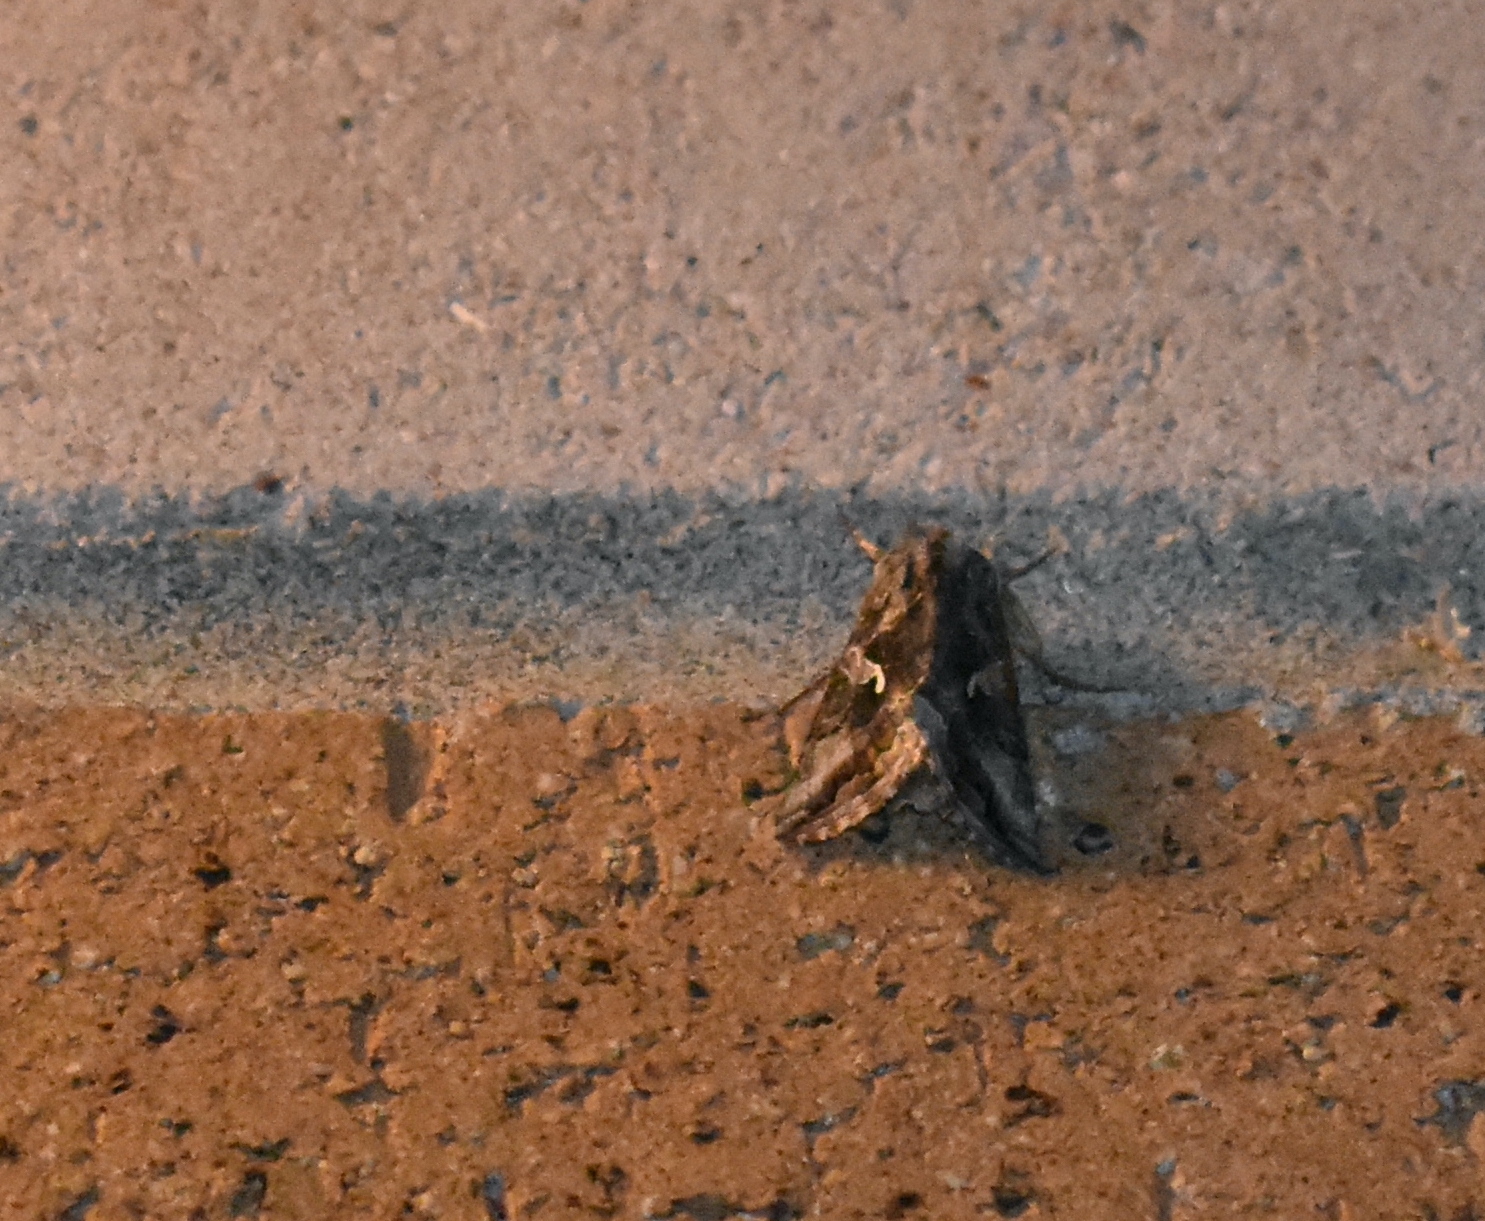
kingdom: Animalia
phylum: Arthropoda
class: Insecta
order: Lepidoptera
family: Noctuidae
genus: Autographa
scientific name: Autographa californica
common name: Alfalfa looper
